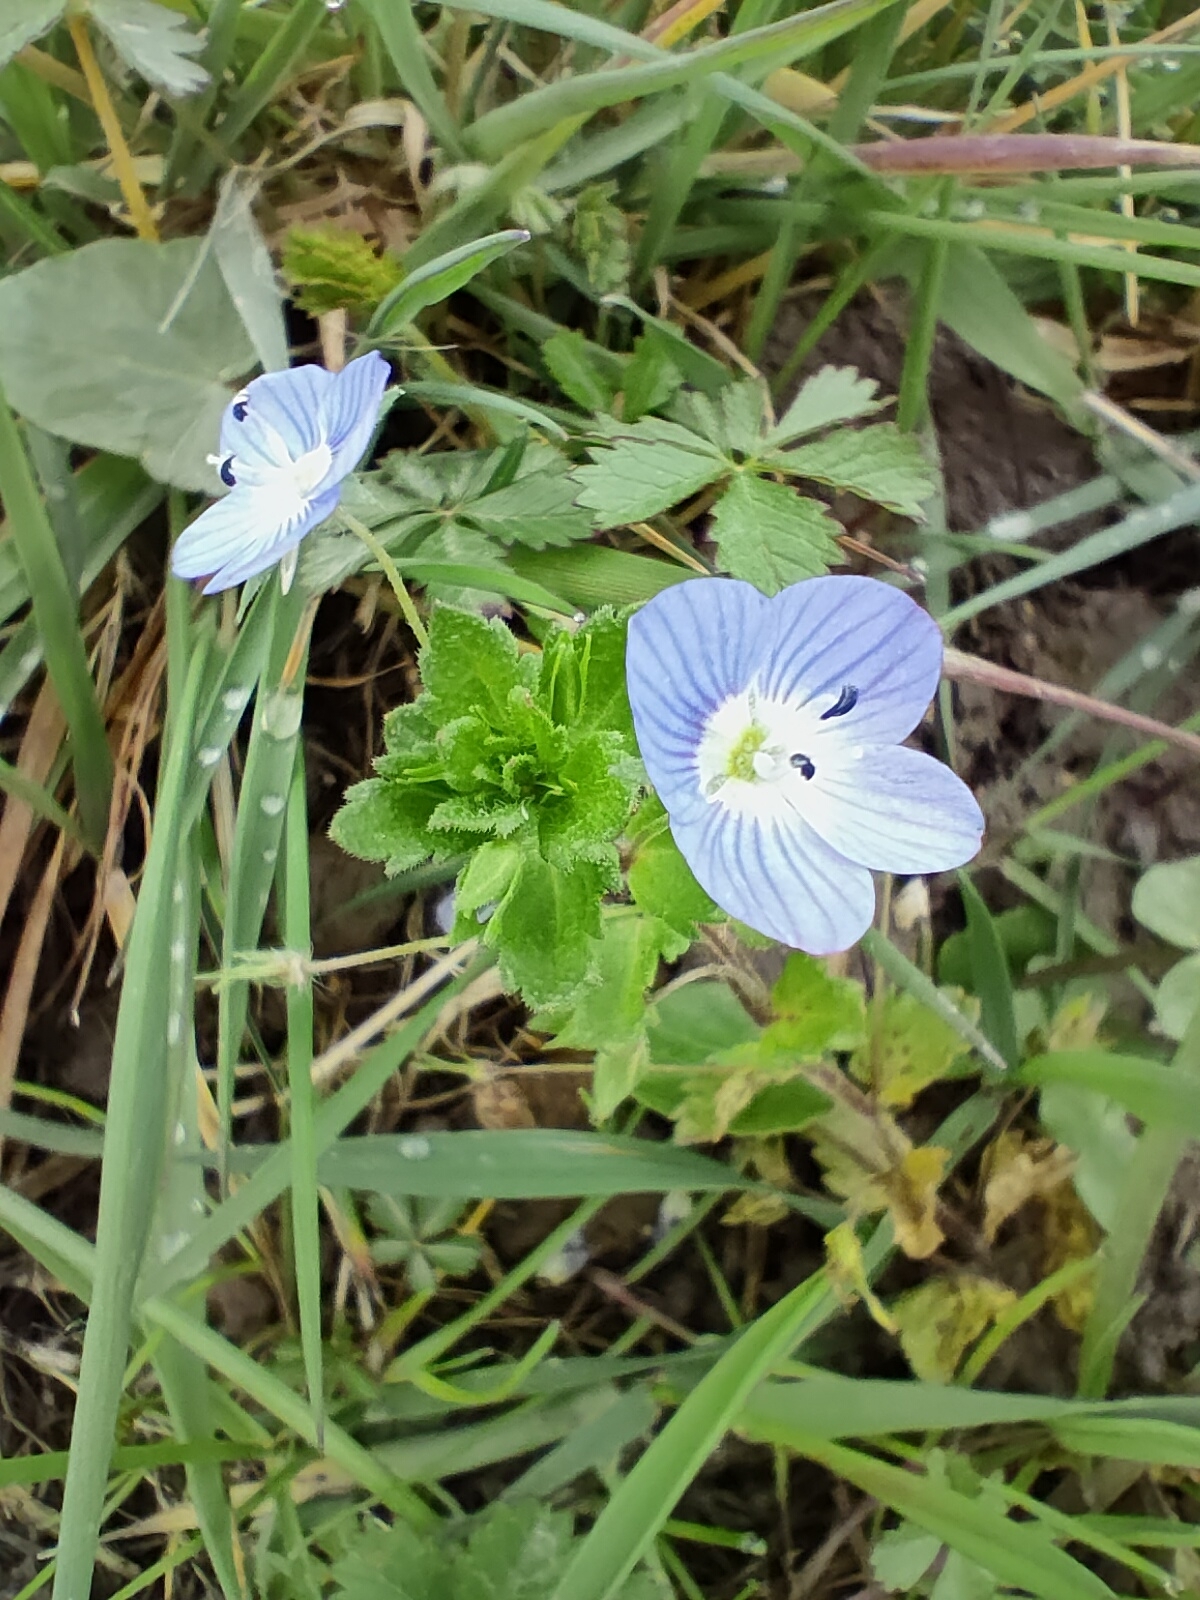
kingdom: Plantae
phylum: Tracheophyta
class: Magnoliopsida
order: Lamiales
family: Plantaginaceae
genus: Veronica
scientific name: Veronica persica
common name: Common field-speedwell
